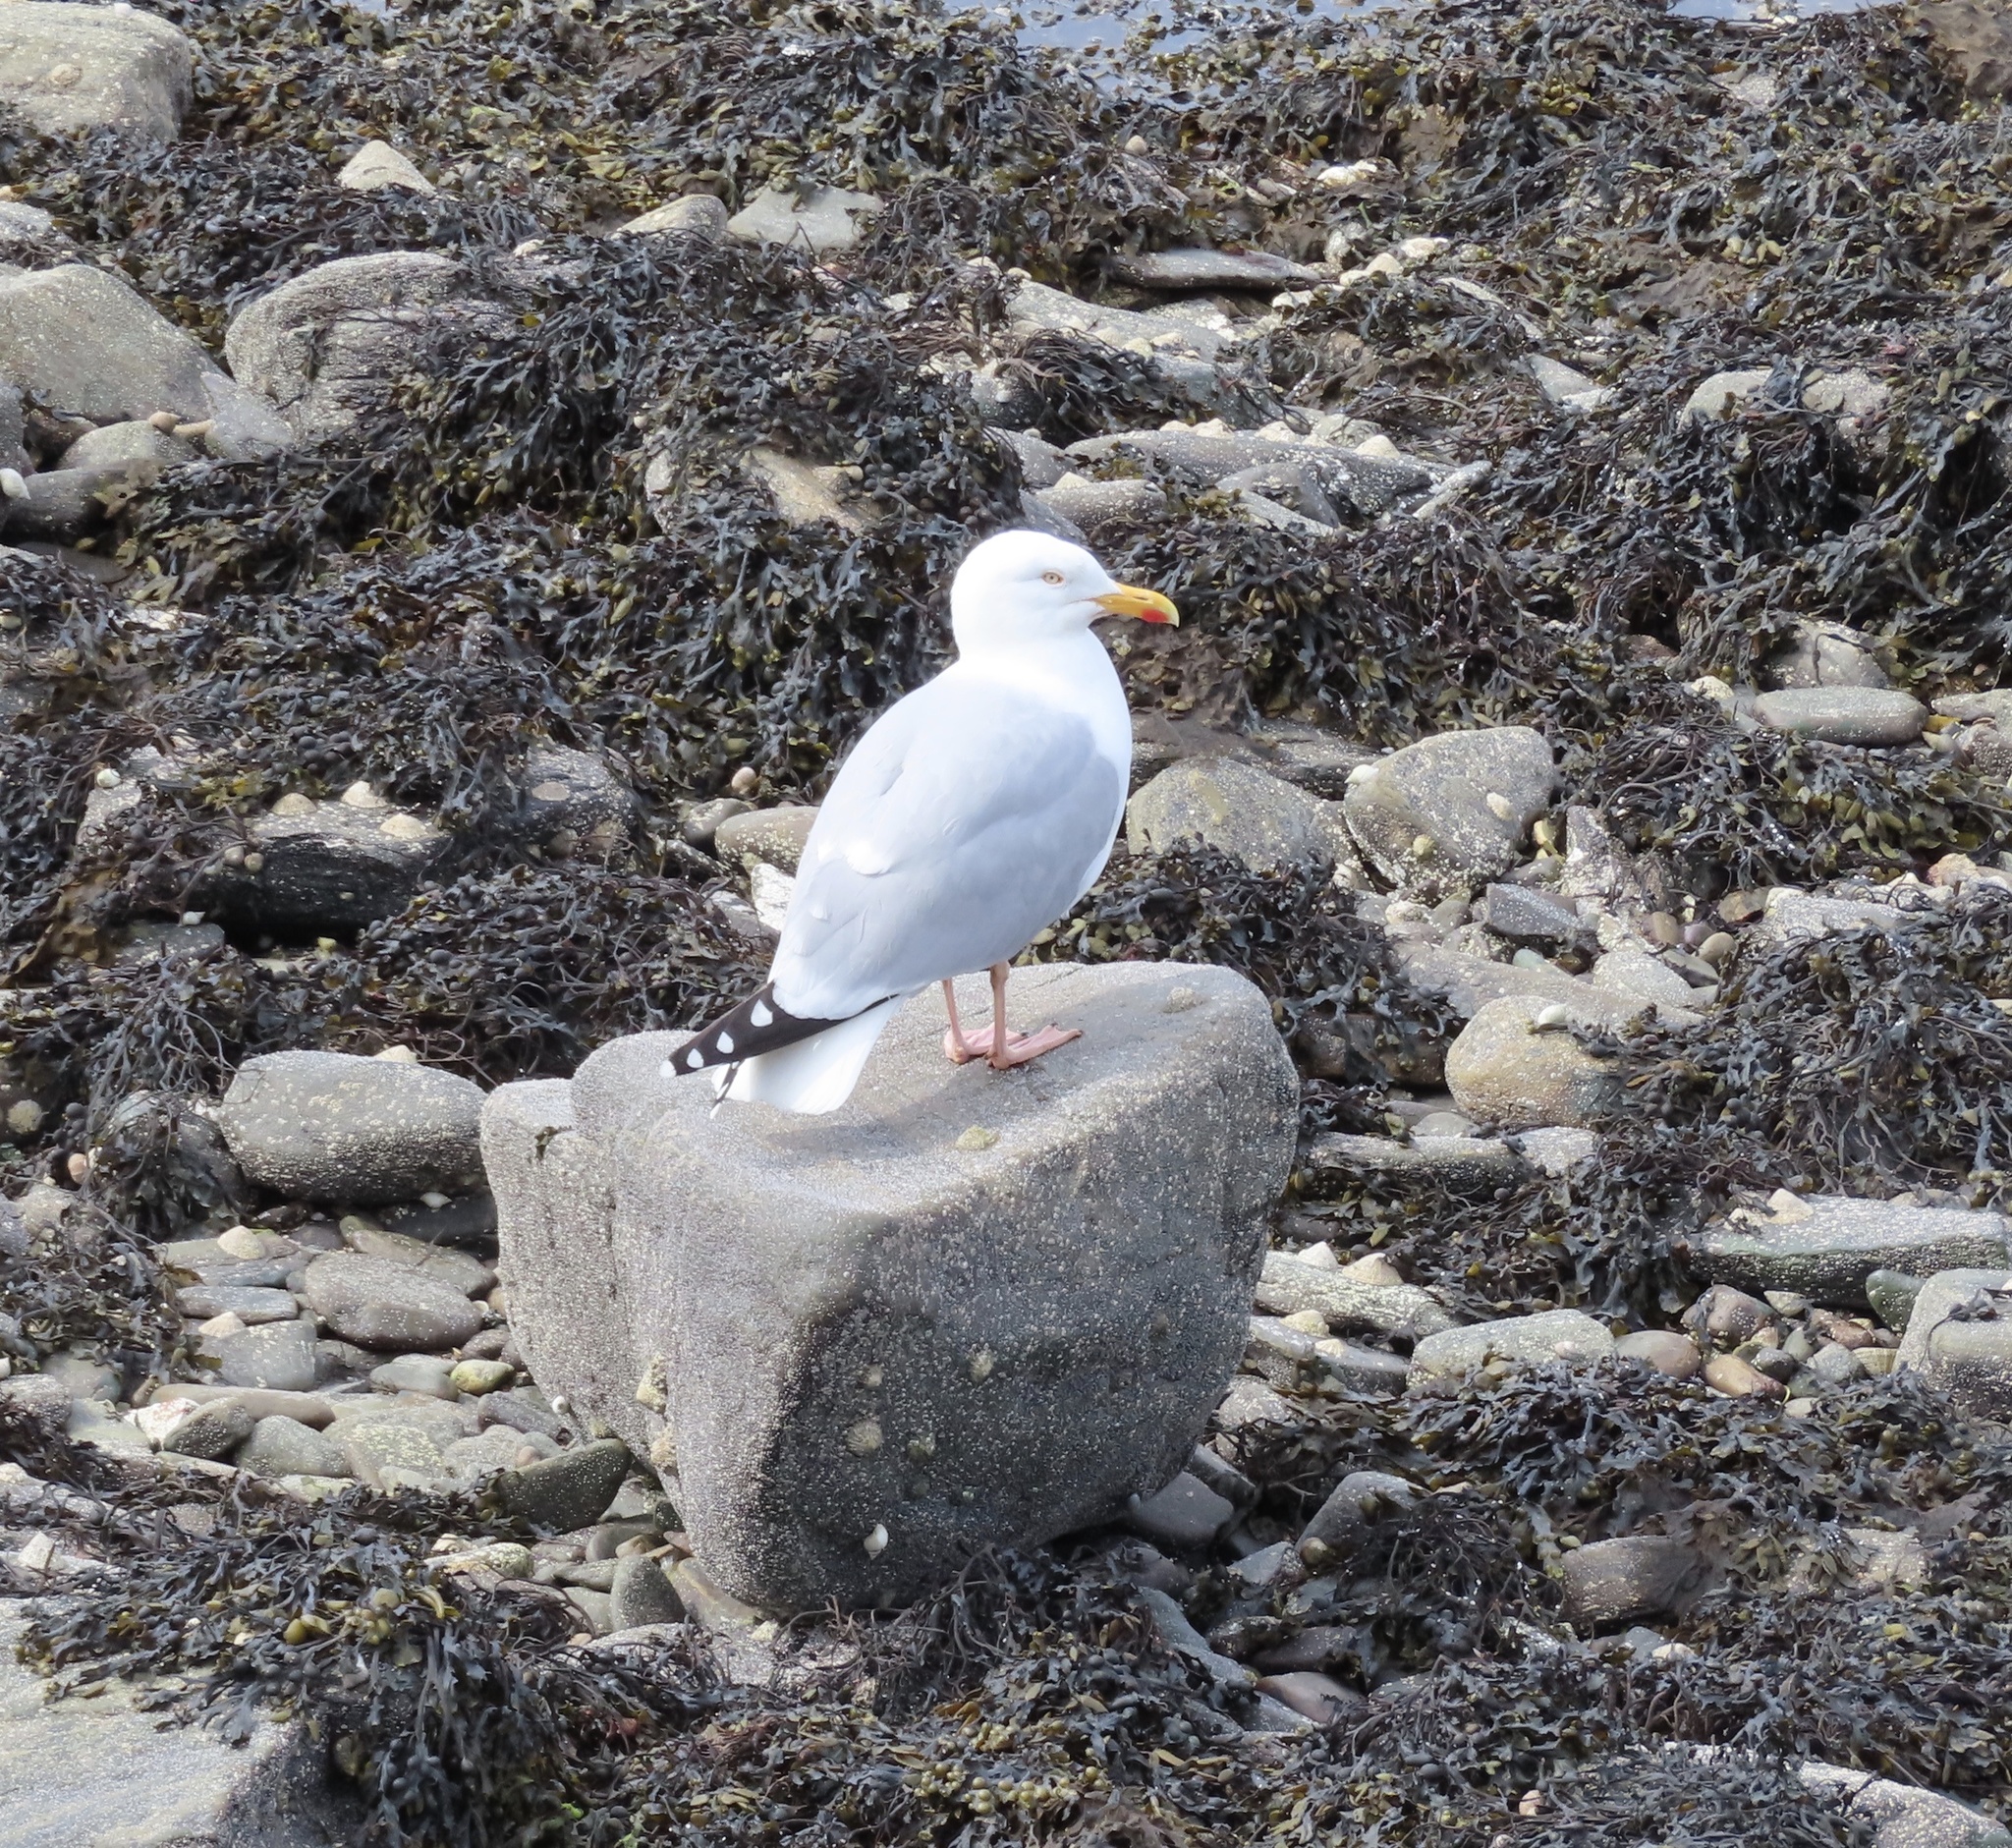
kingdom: Animalia
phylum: Chordata
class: Aves
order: Charadriiformes
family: Laridae
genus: Larus
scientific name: Larus argentatus
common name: Herring gull
